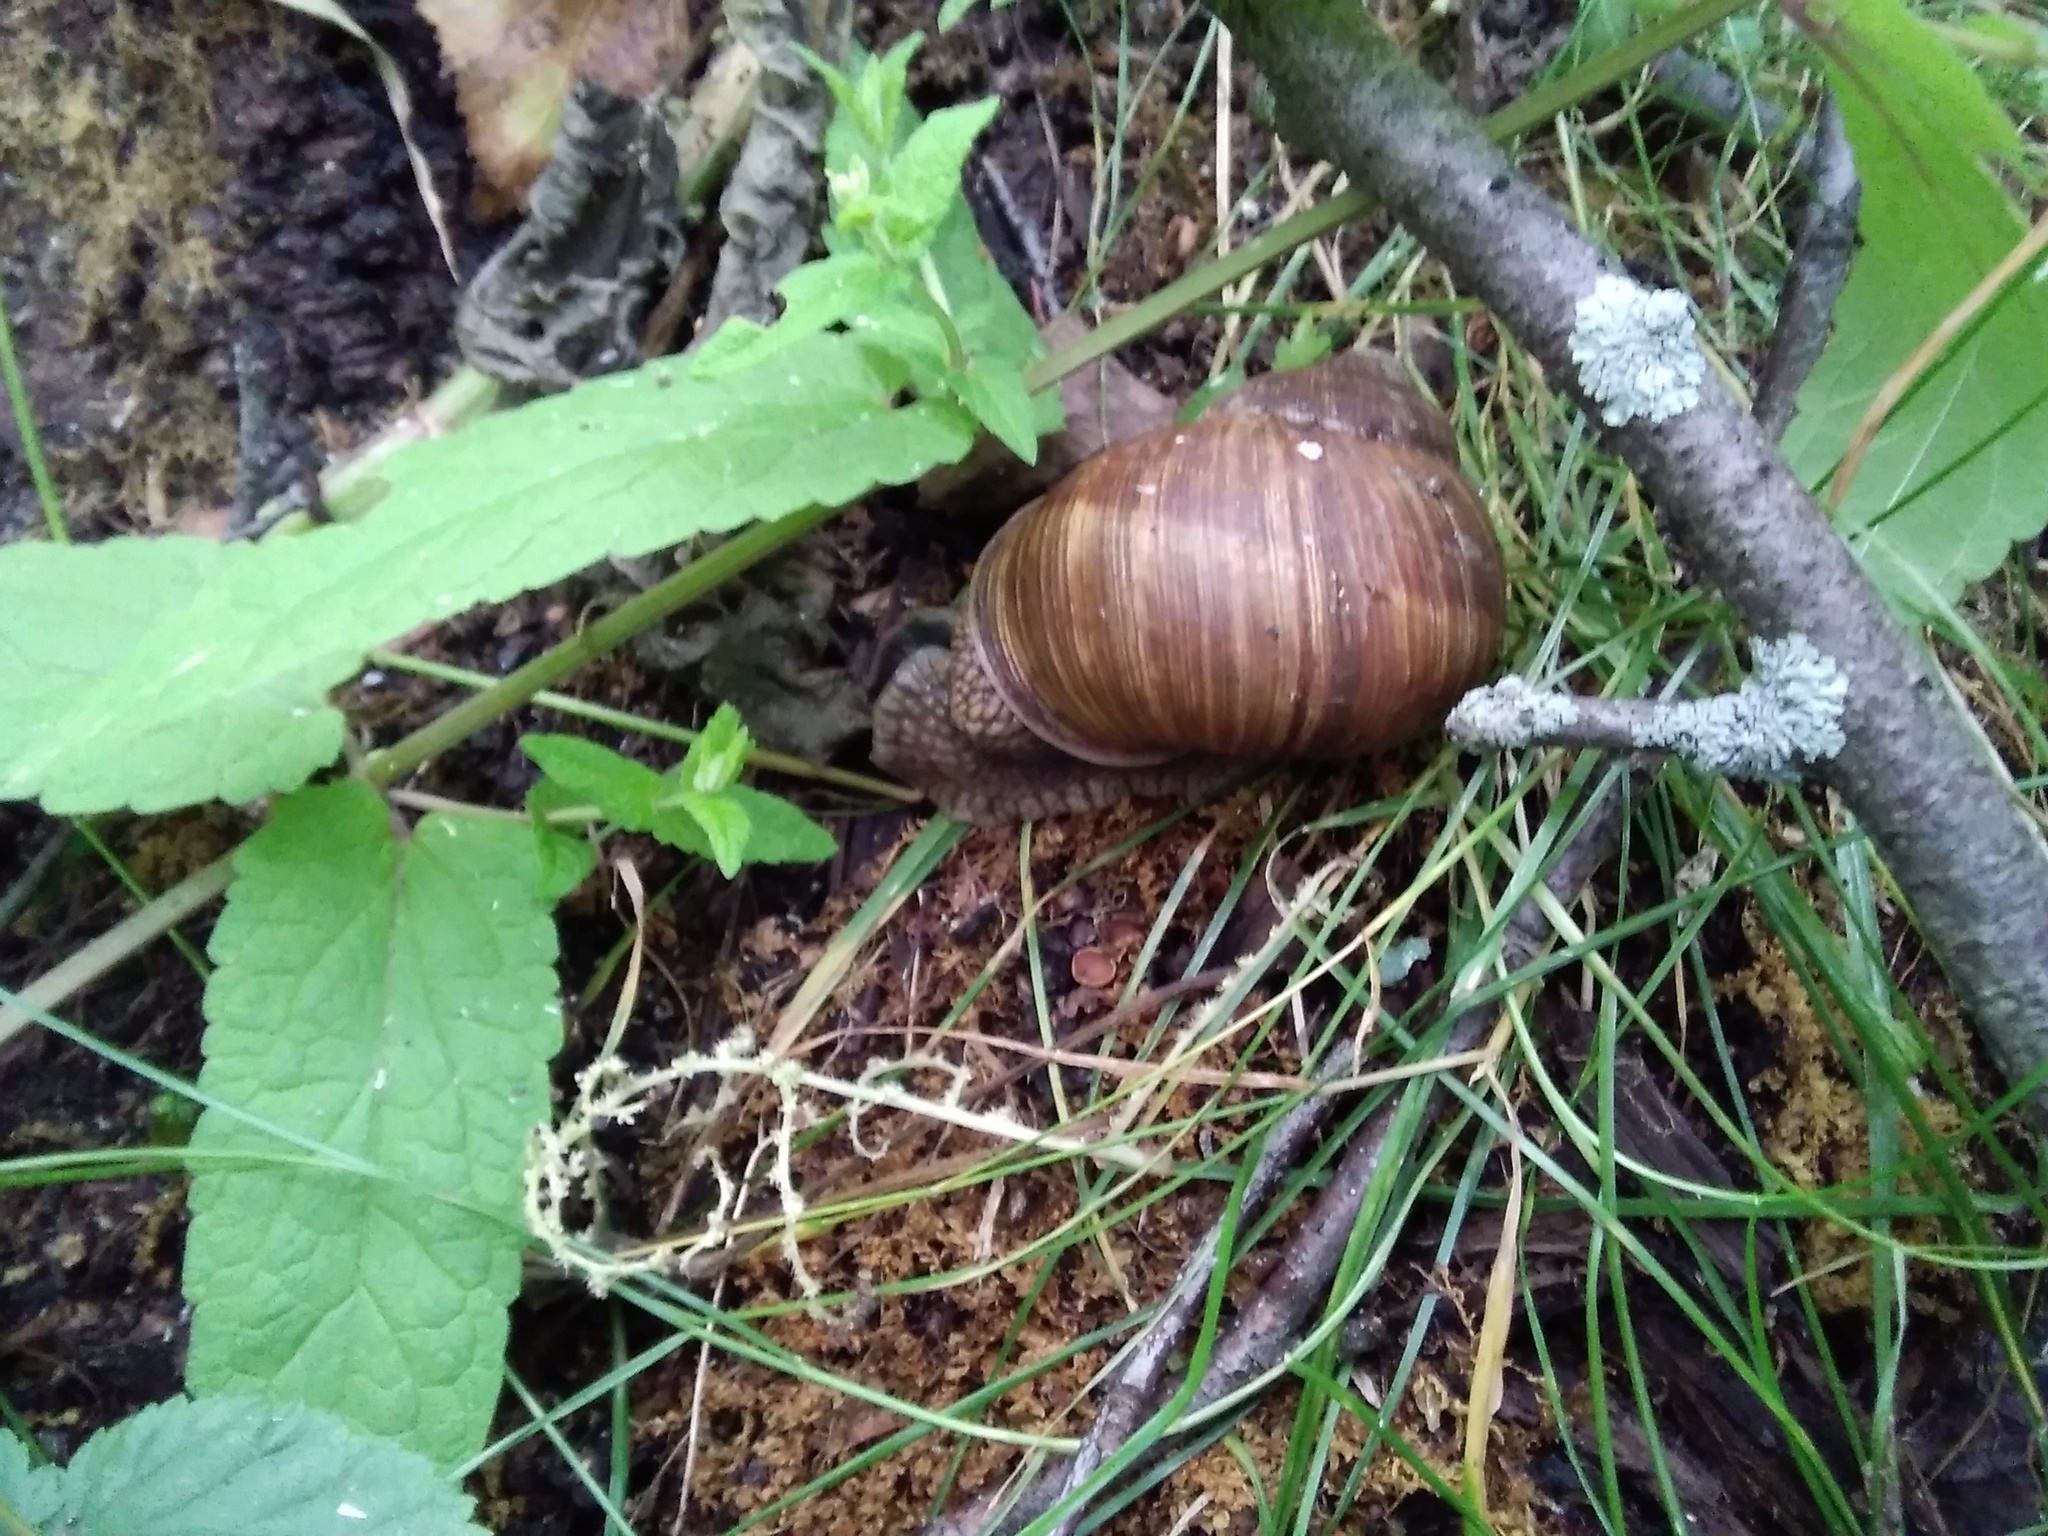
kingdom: Animalia
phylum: Mollusca
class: Gastropoda
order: Stylommatophora
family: Helicidae
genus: Helix
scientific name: Helix pomatia
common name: Roman snail
